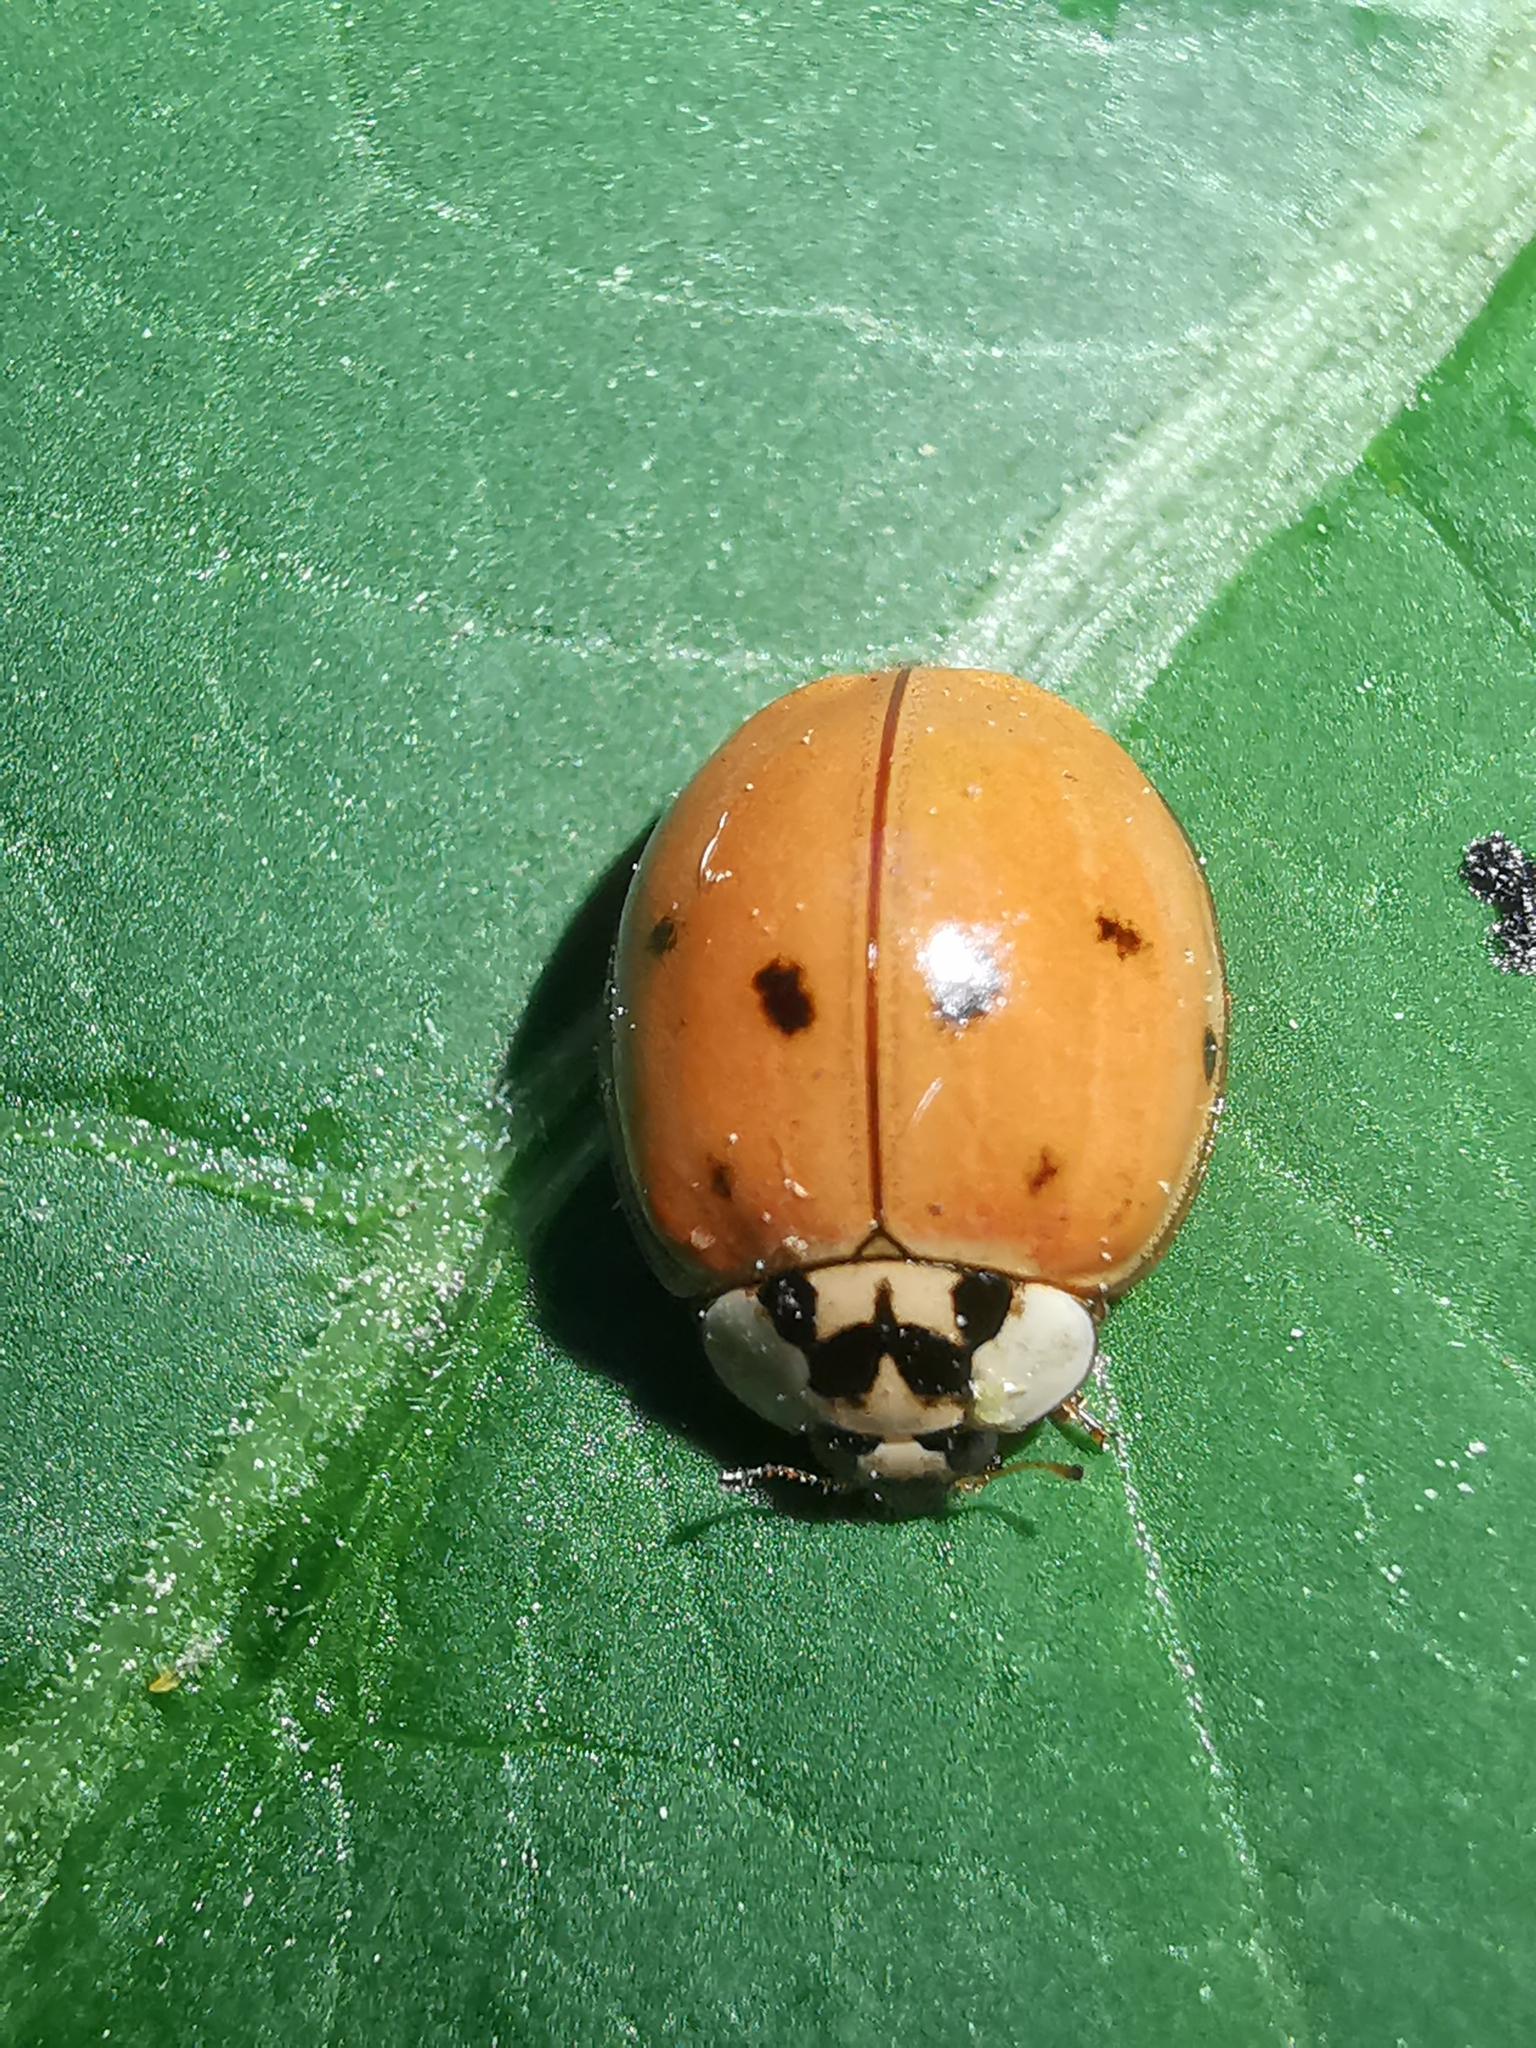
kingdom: Animalia
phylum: Arthropoda
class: Insecta
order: Coleoptera
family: Coccinellidae
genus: Harmonia
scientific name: Harmonia axyridis
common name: Harlequin ladybird
